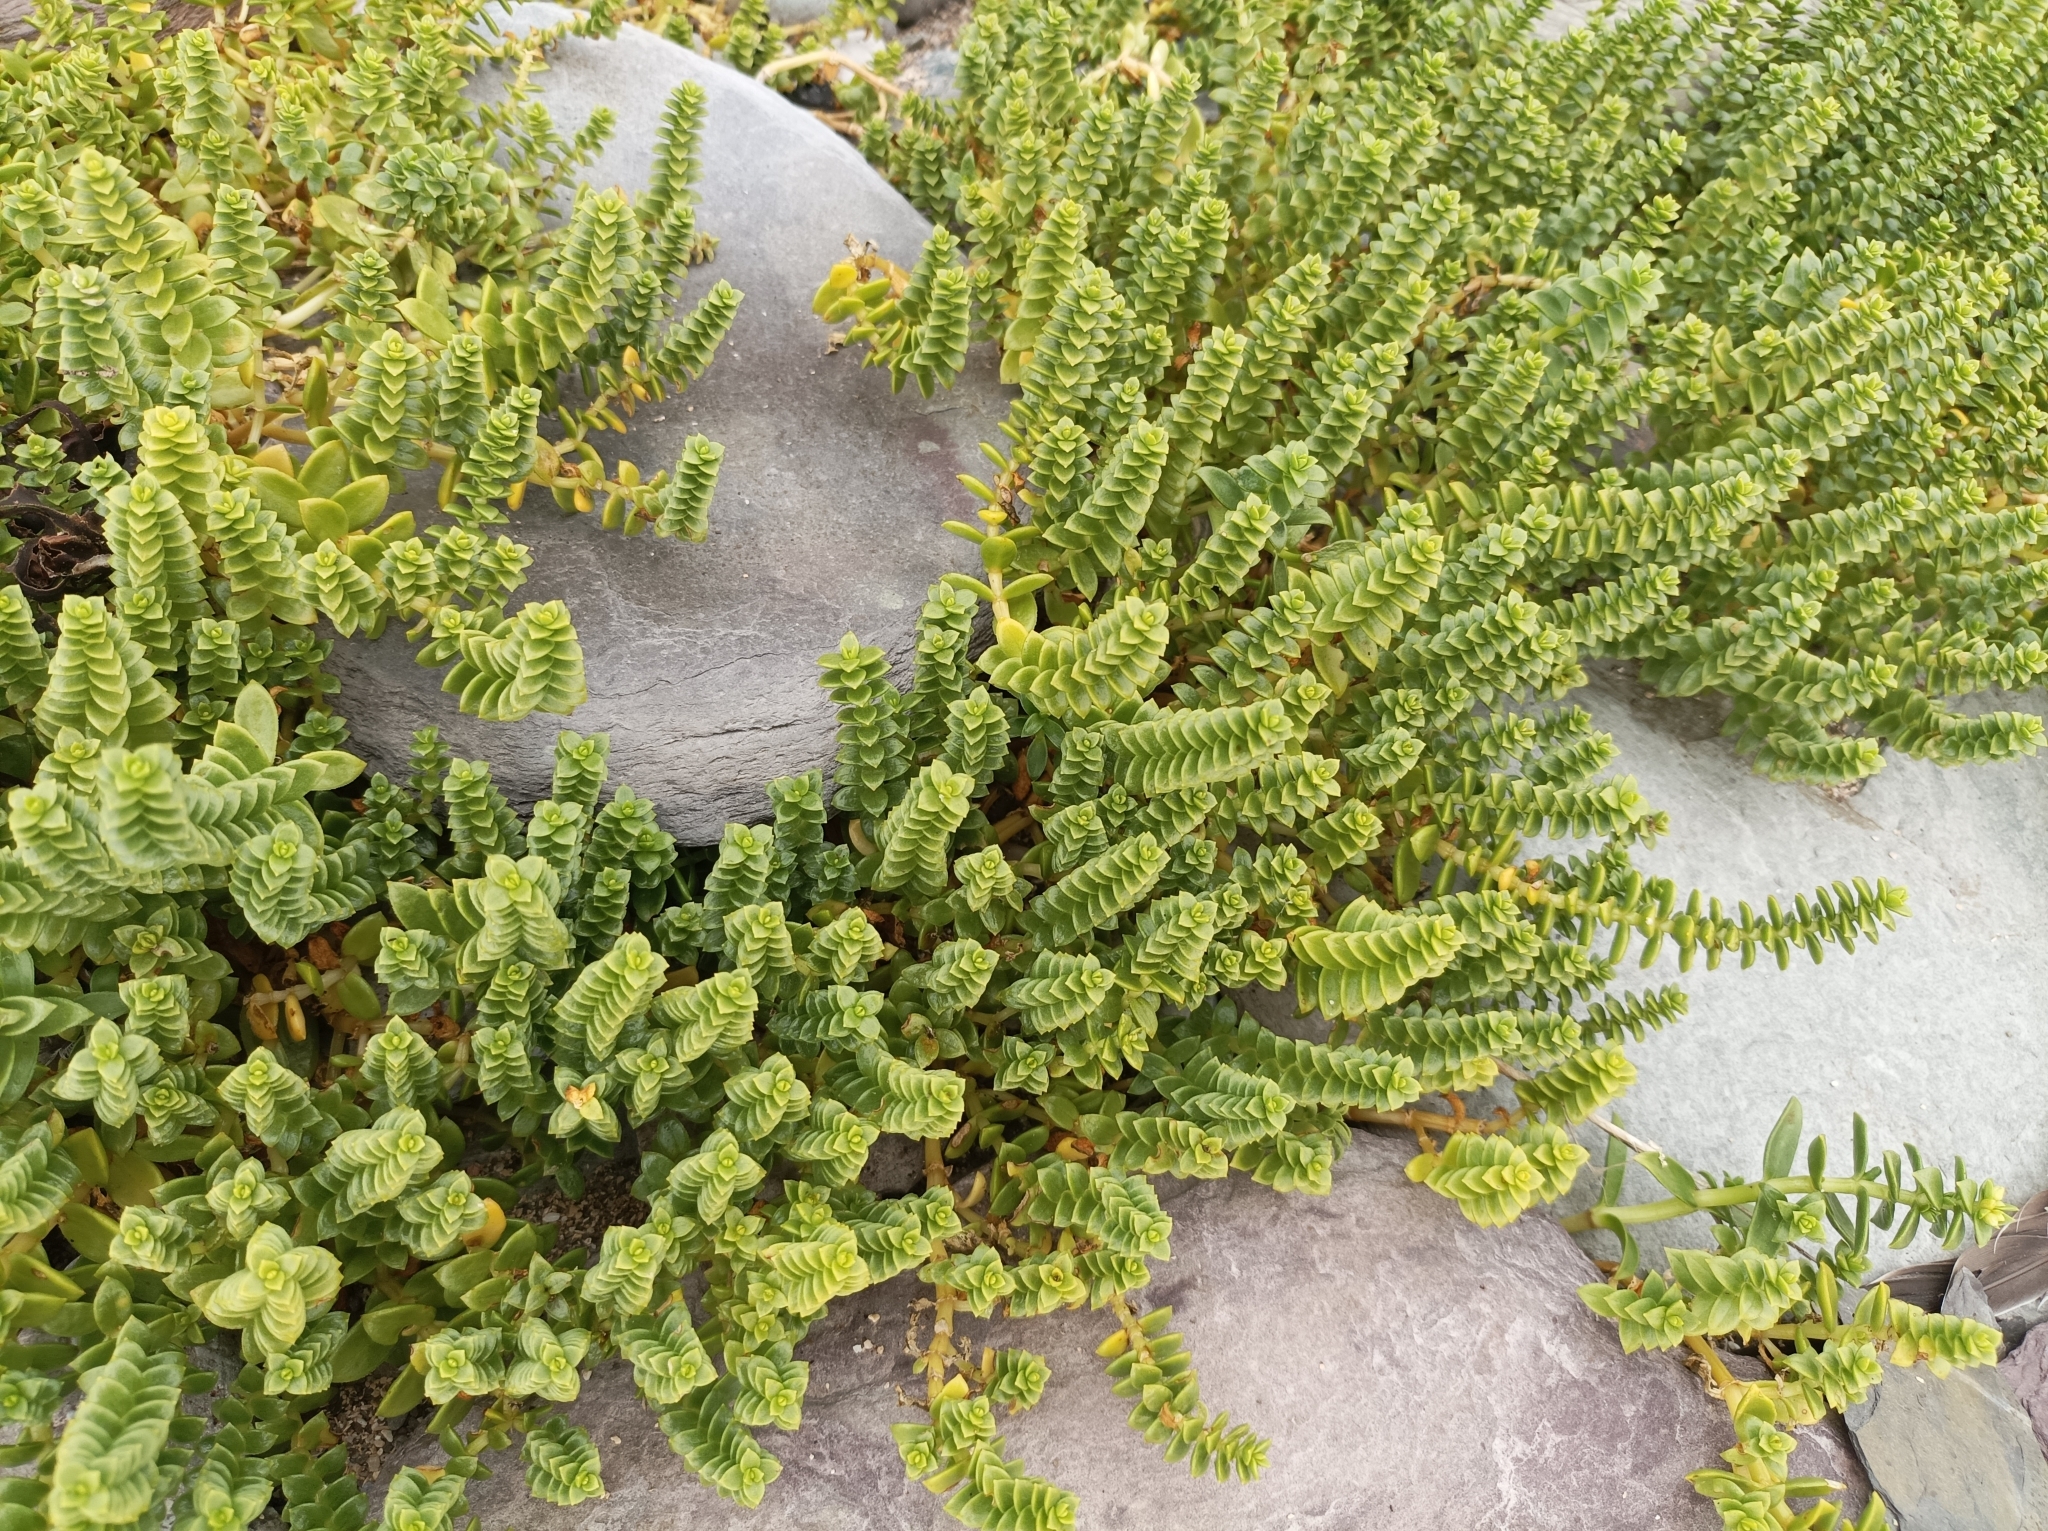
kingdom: Plantae
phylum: Tracheophyta
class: Magnoliopsida
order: Caryophyllales
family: Caryophyllaceae
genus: Honckenya
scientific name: Honckenya peploides
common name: Sea sandwort
